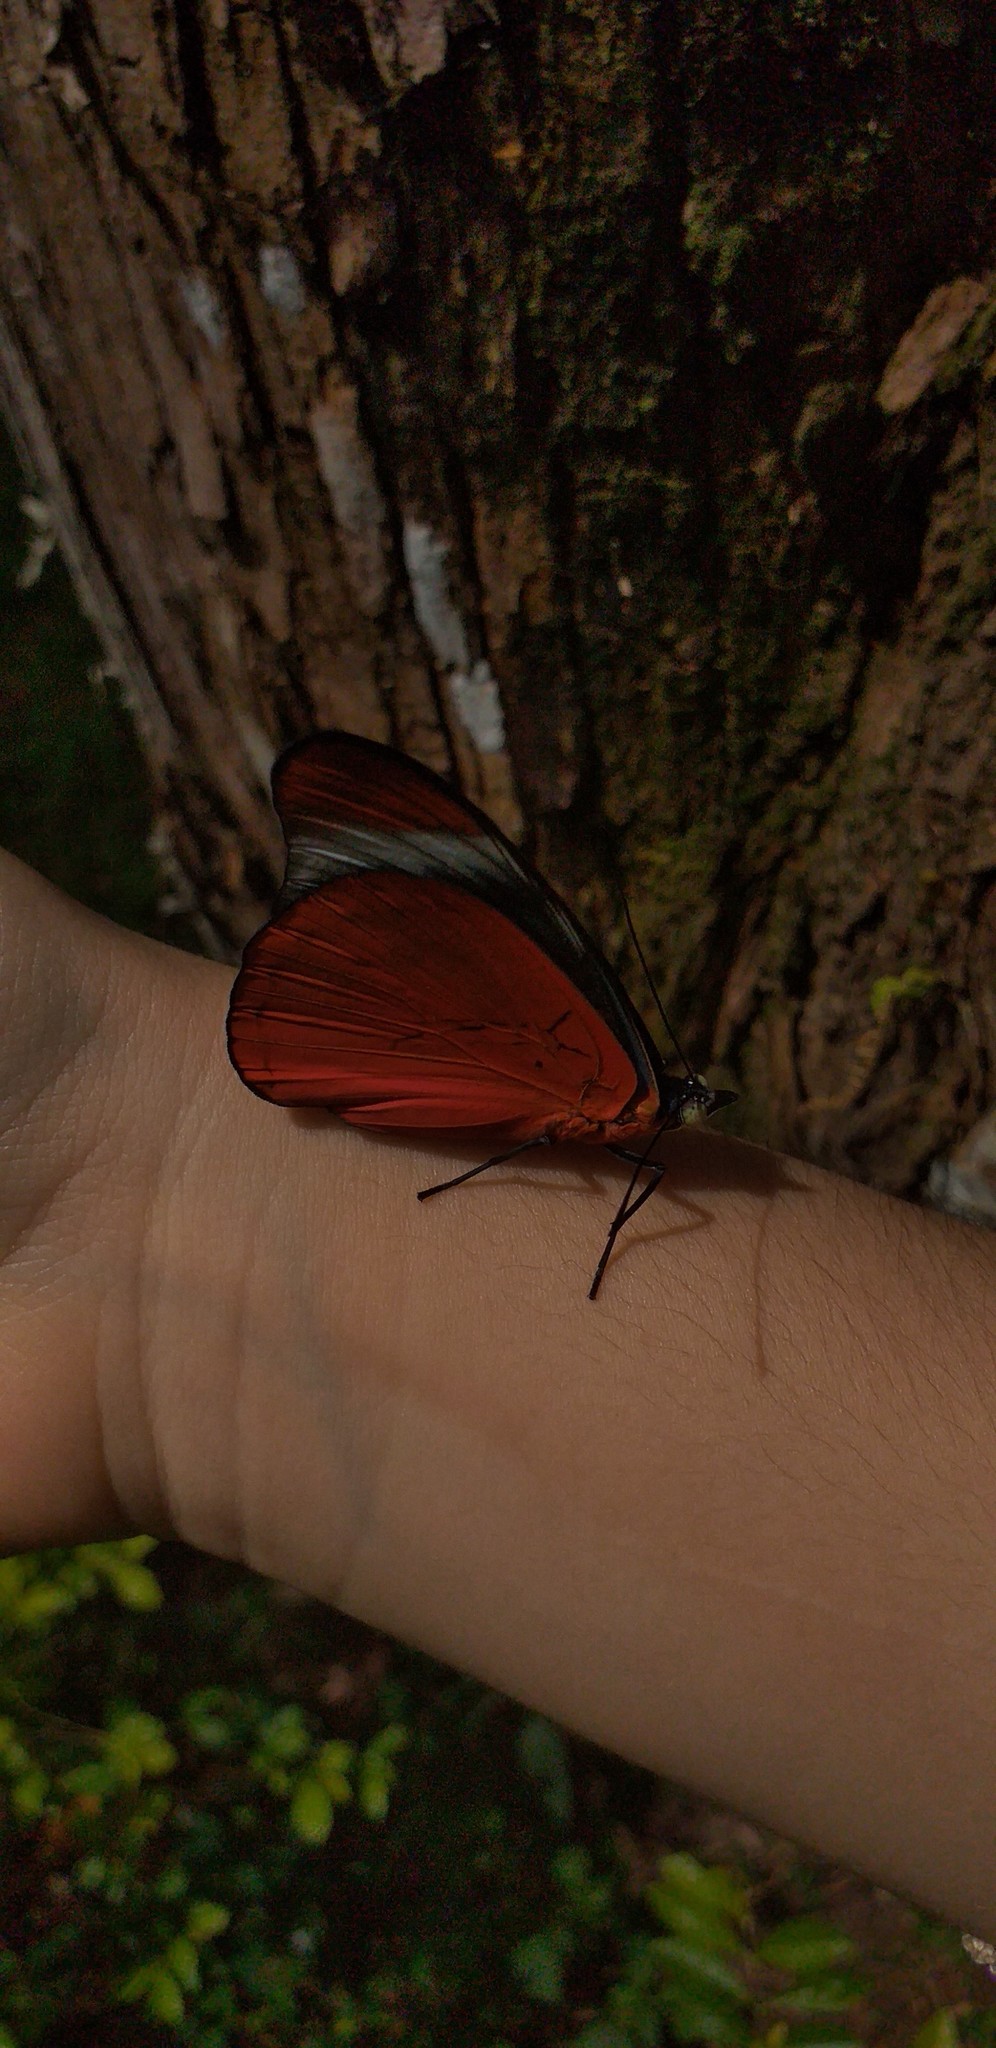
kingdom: Animalia
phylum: Arthropoda
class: Insecta
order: Lepidoptera
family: Nymphalidae
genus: Panacea
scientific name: Panacea prola
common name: Red flasher
